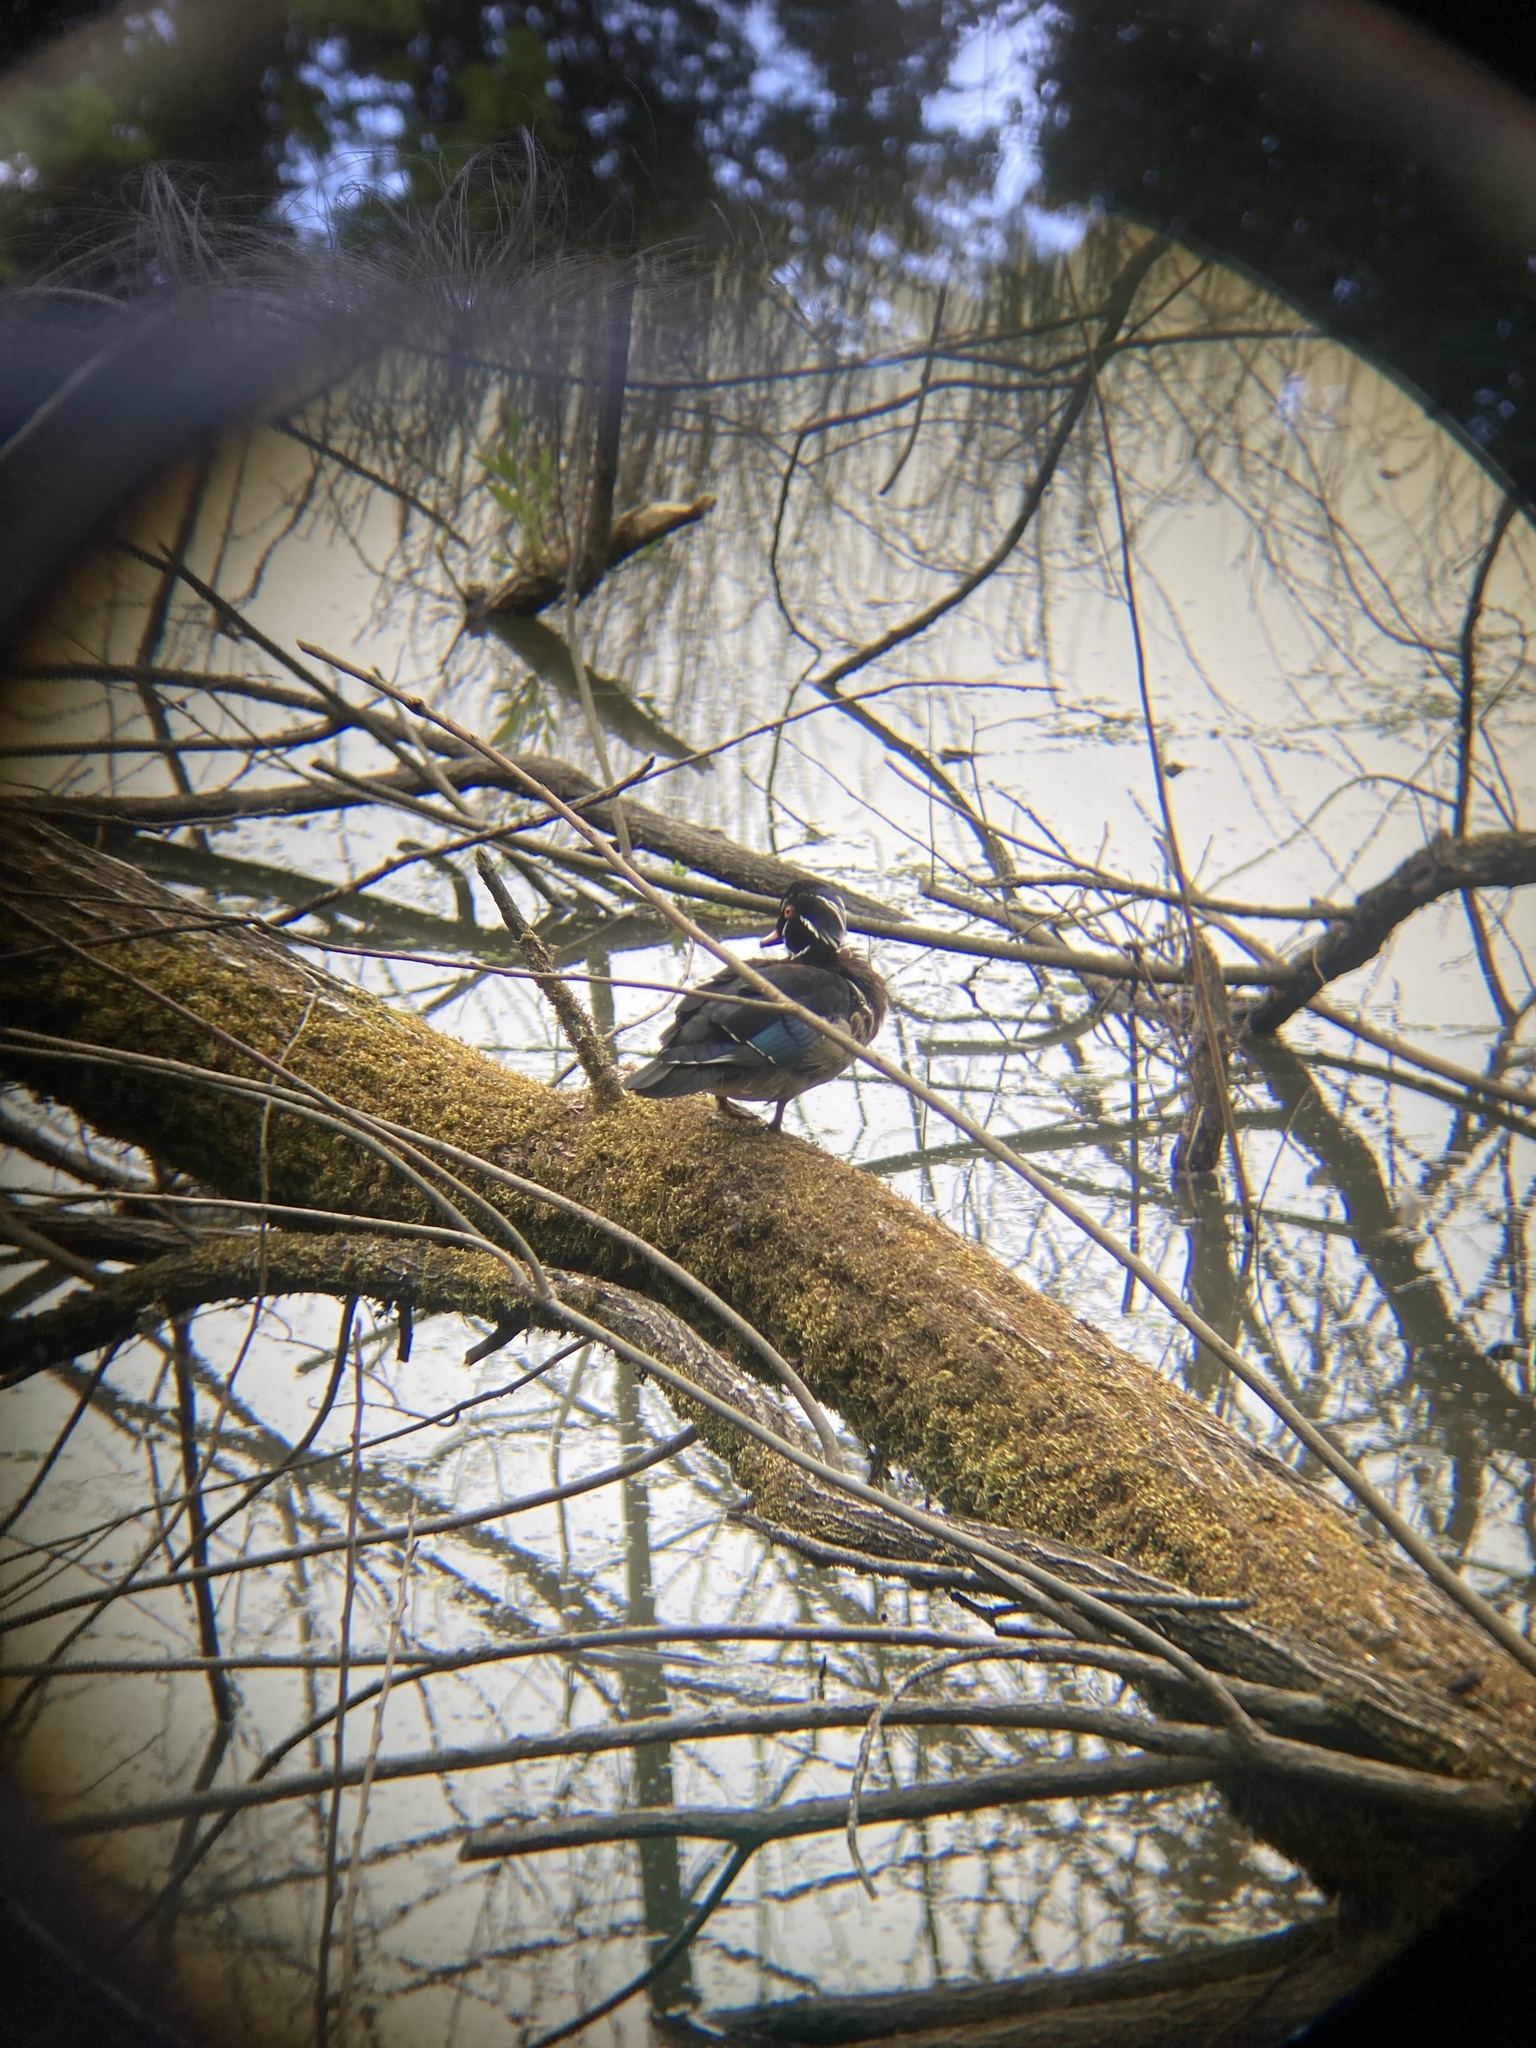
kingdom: Animalia
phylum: Chordata
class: Aves
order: Anseriformes
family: Anatidae
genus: Aix
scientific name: Aix sponsa
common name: Wood duck
